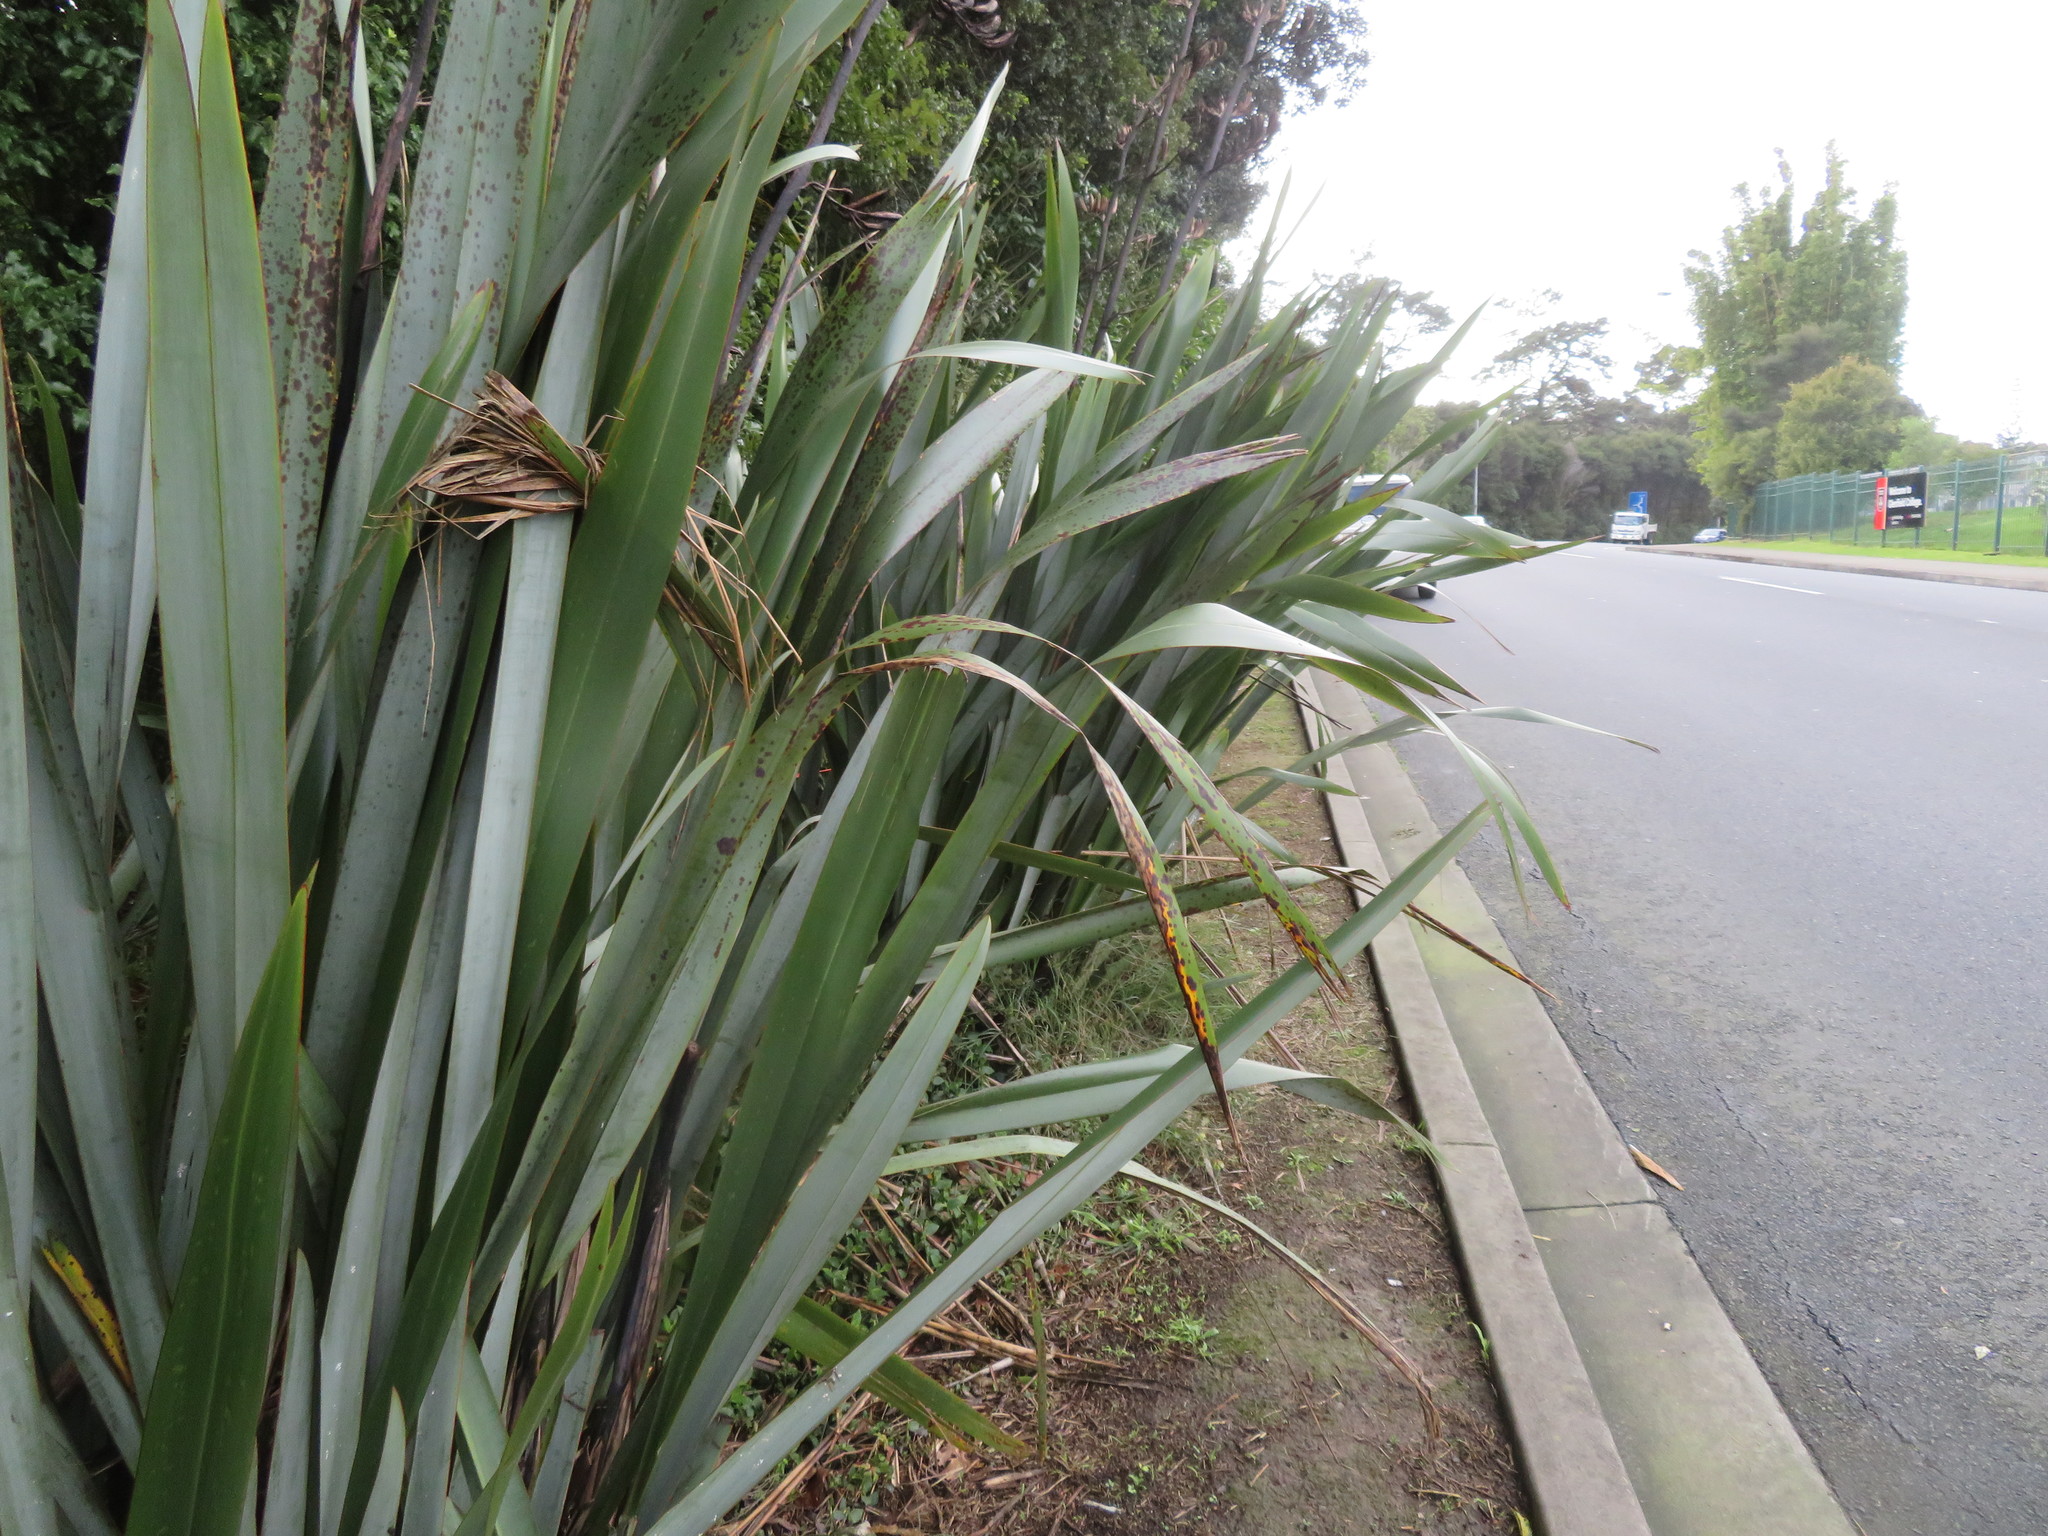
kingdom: Plantae
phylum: Tracheophyta
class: Liliopsida
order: Asparagales
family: Asphodelaceae
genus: Phormium
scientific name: Phormium tenax
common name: New zealand flax
